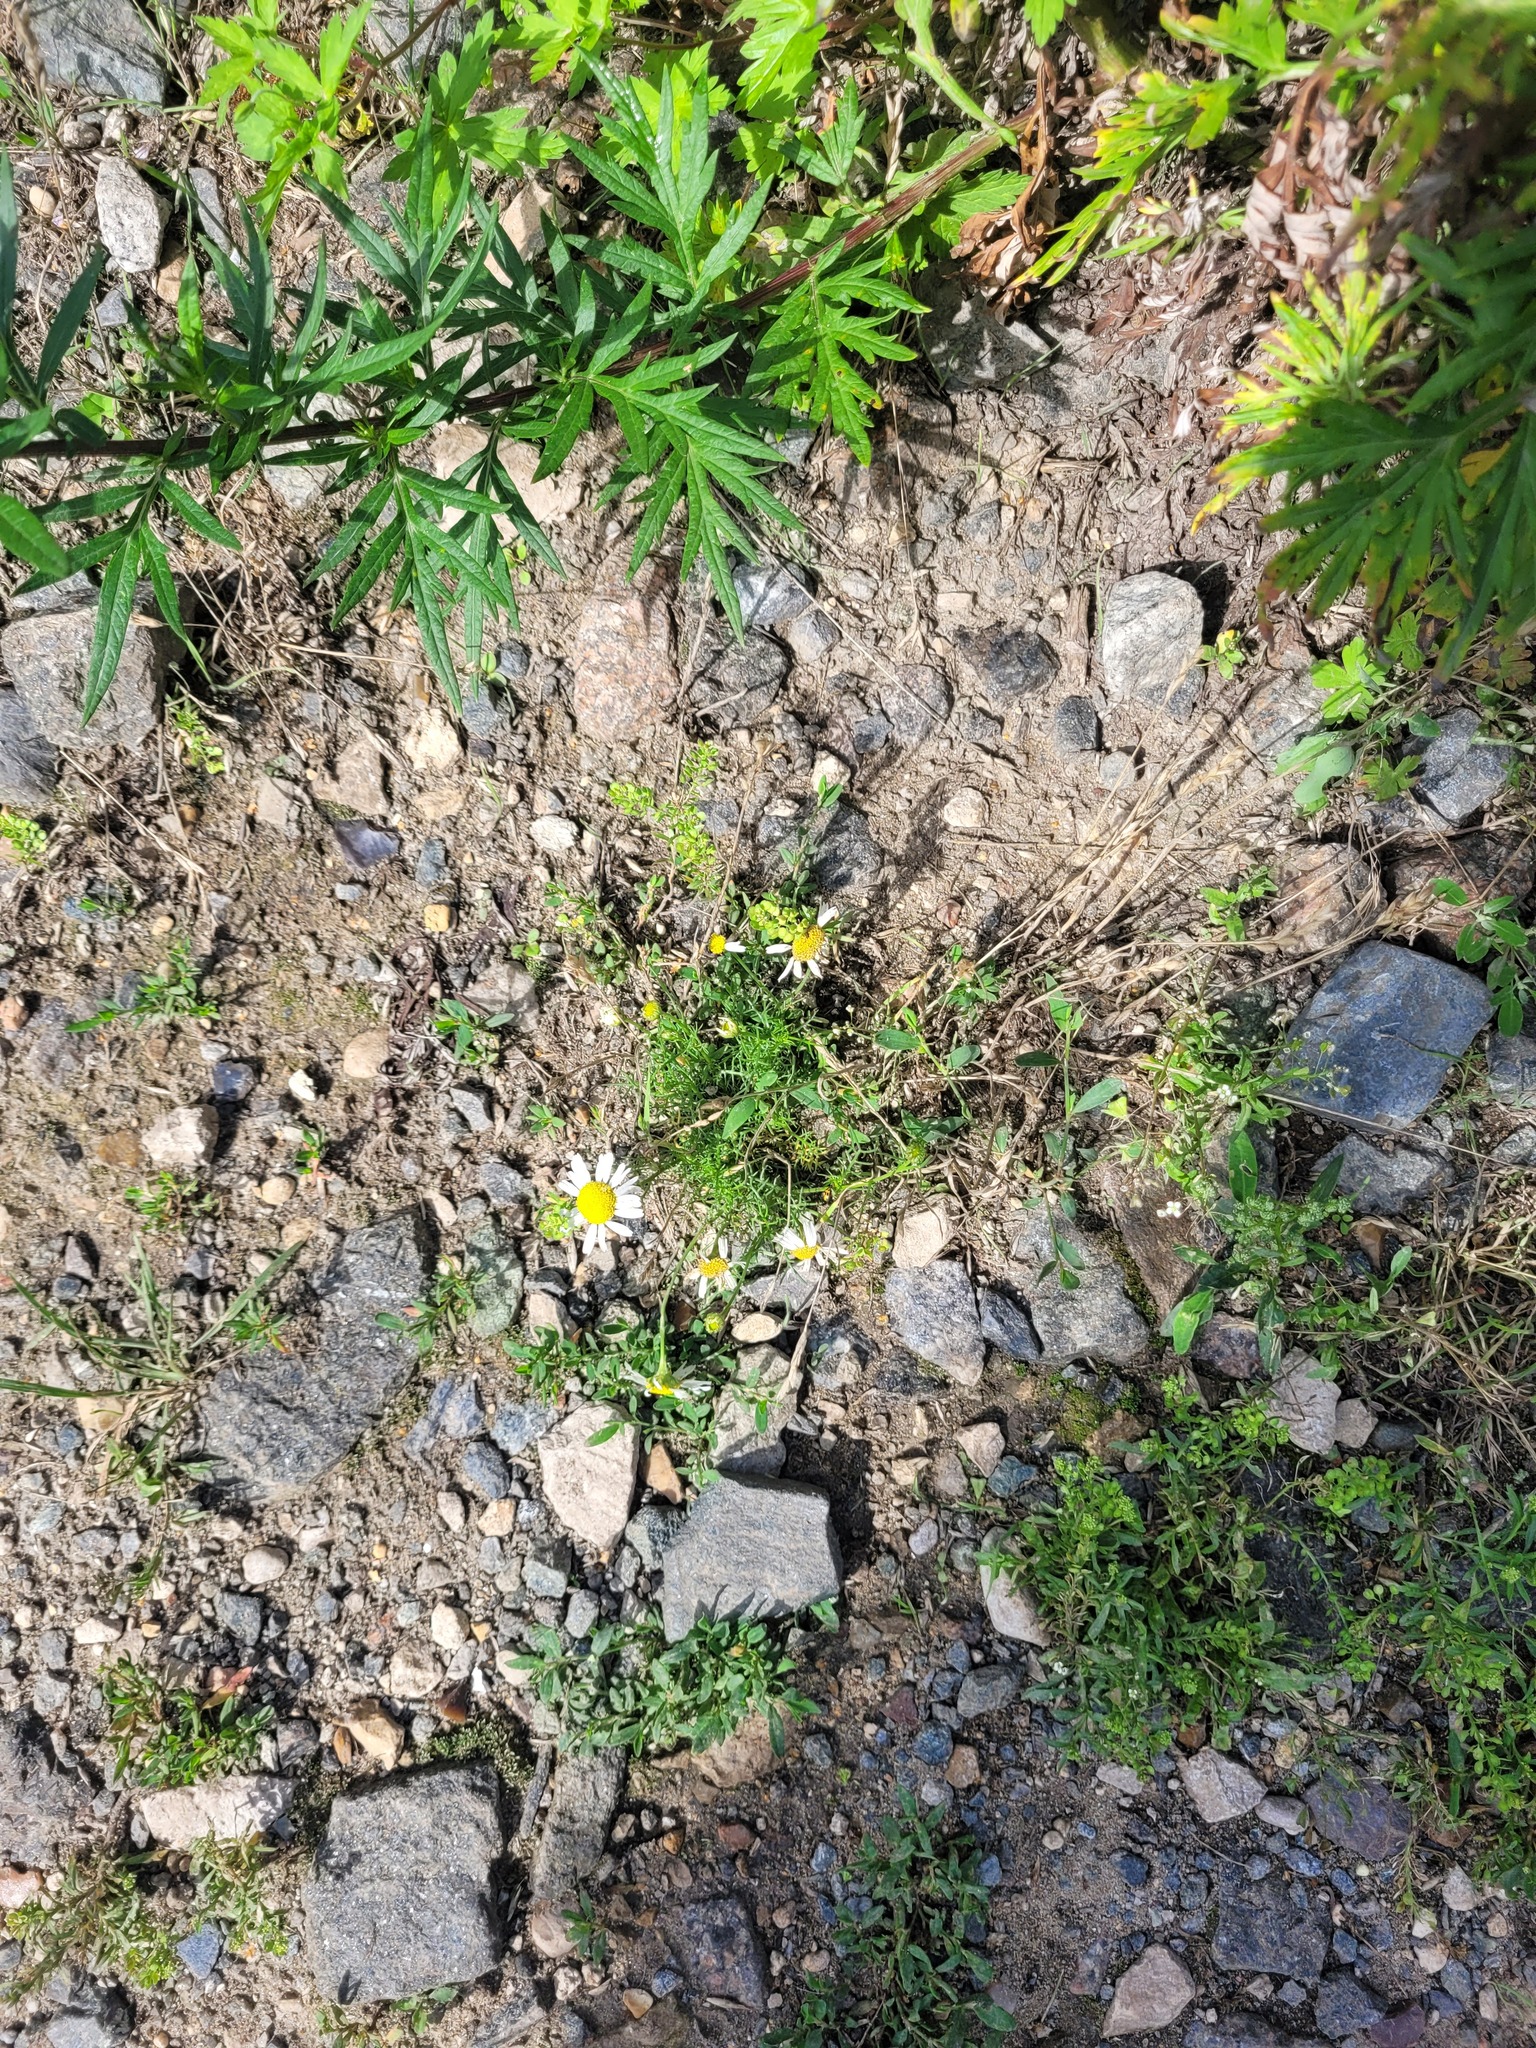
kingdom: Plantae
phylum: Tracheophyta
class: Magnoliopsida
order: Asterales
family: Asteraceae
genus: Tripleurospermum
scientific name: Tripleurospermum inodorum
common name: Scentless mayweed
